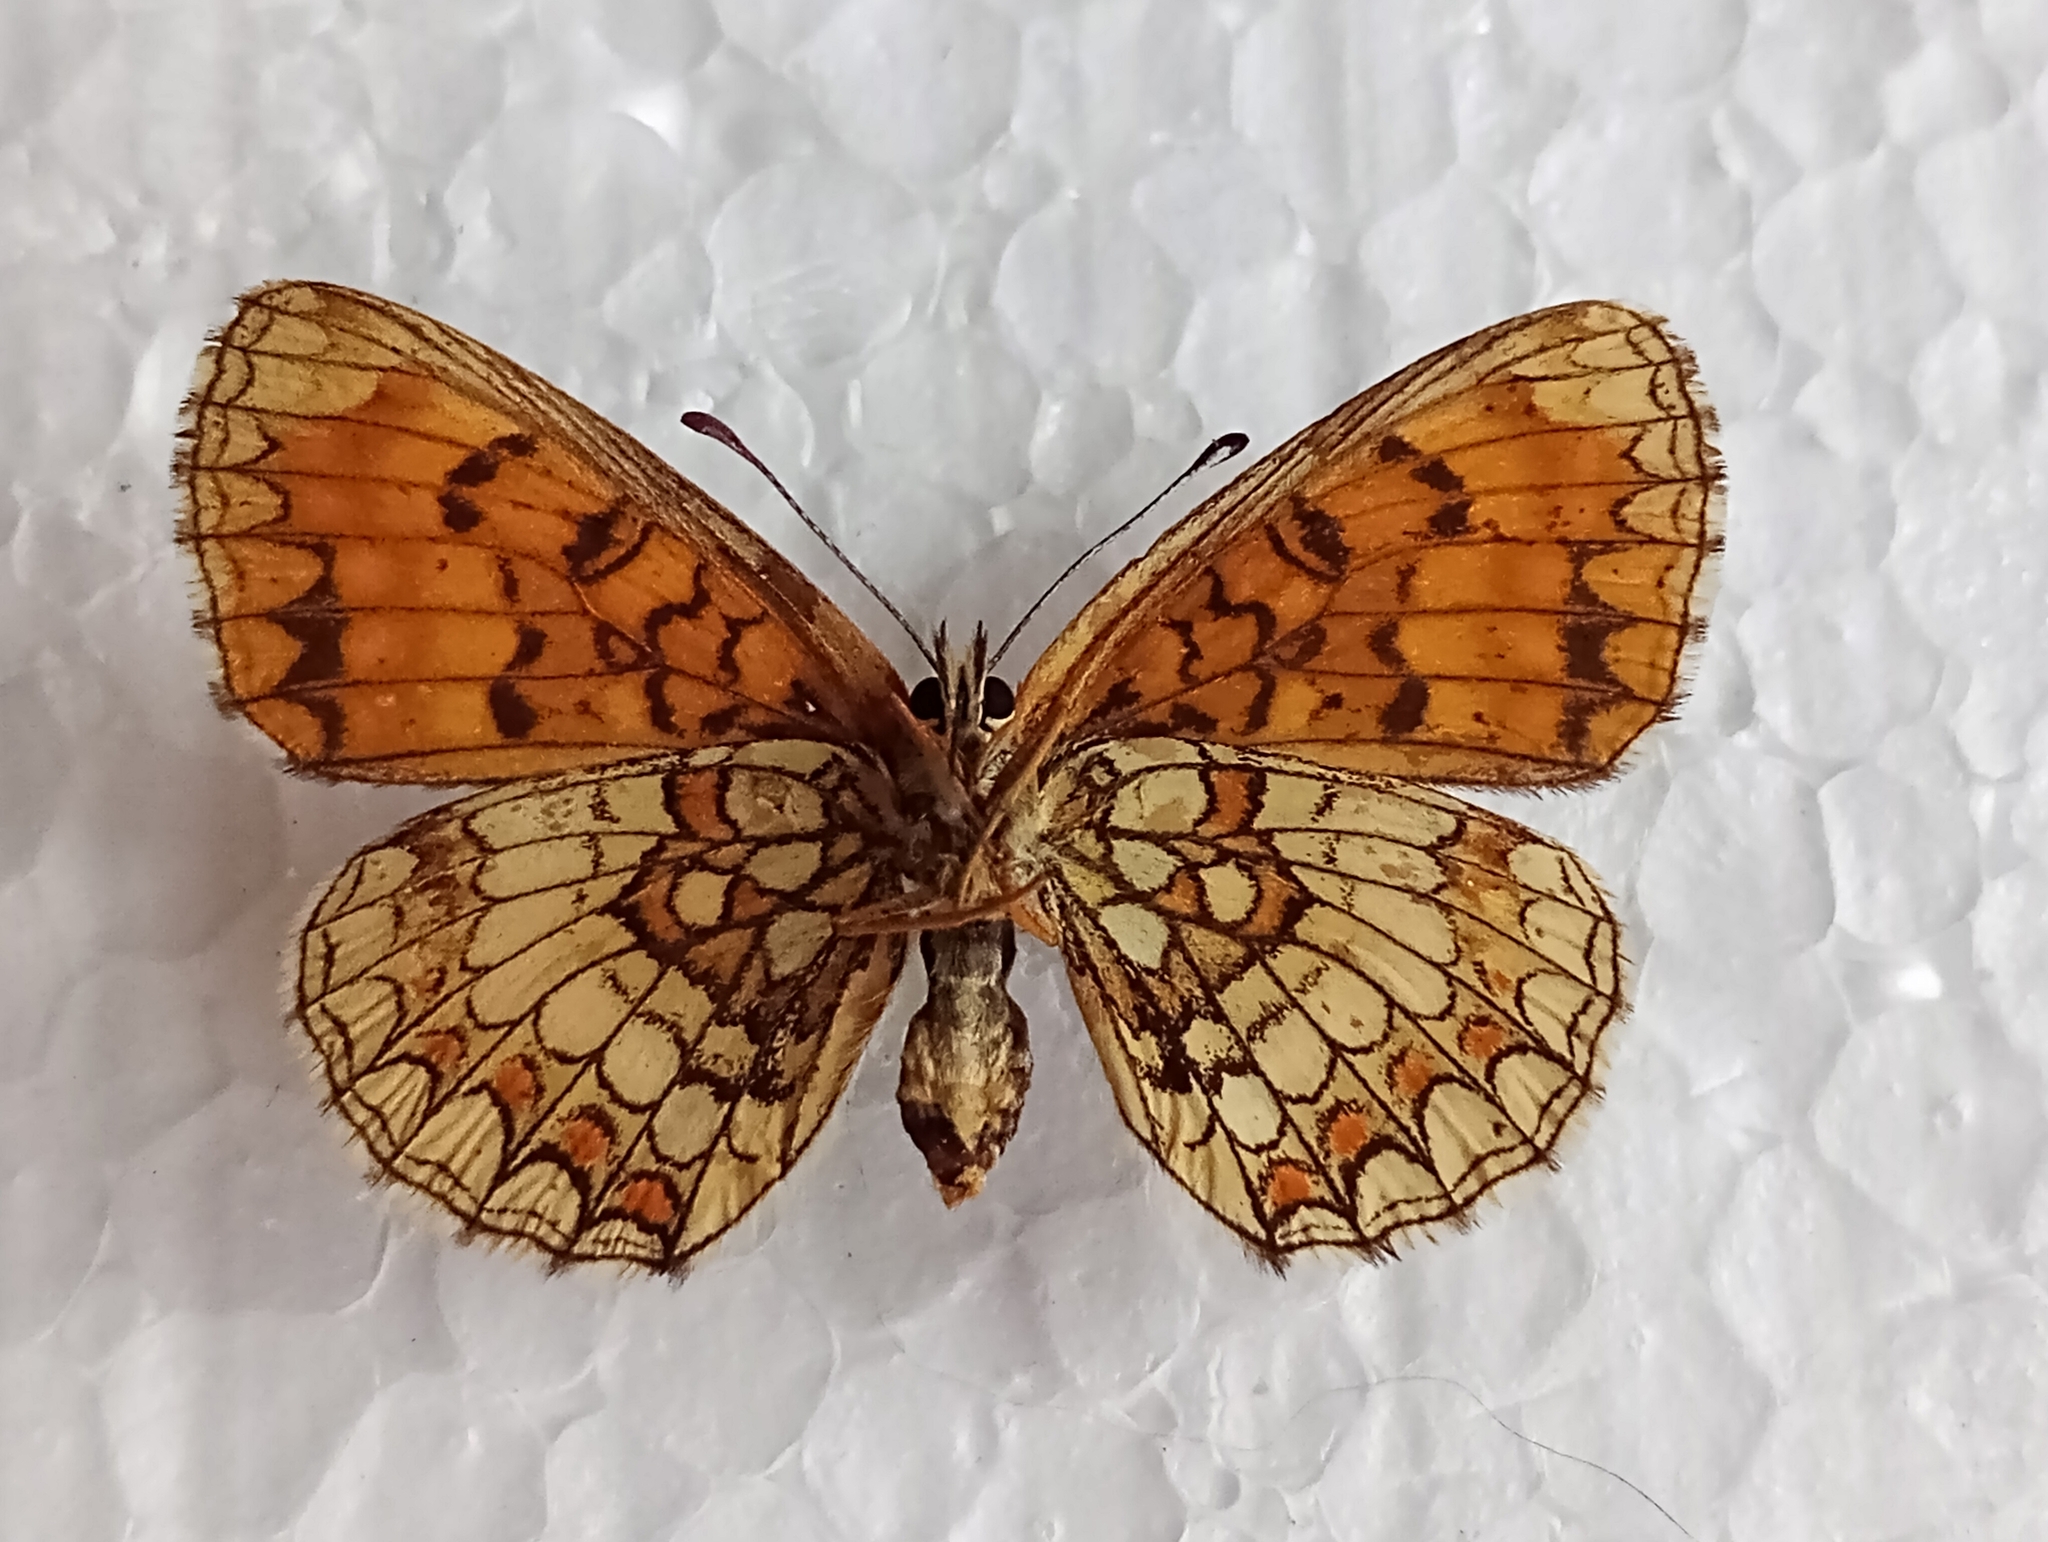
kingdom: Animalia
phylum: Arthropoda
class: Insecta
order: Lepidoptera
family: Nymphalidae
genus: Melitaea
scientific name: Melitaea athalia
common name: Heath fritillary
